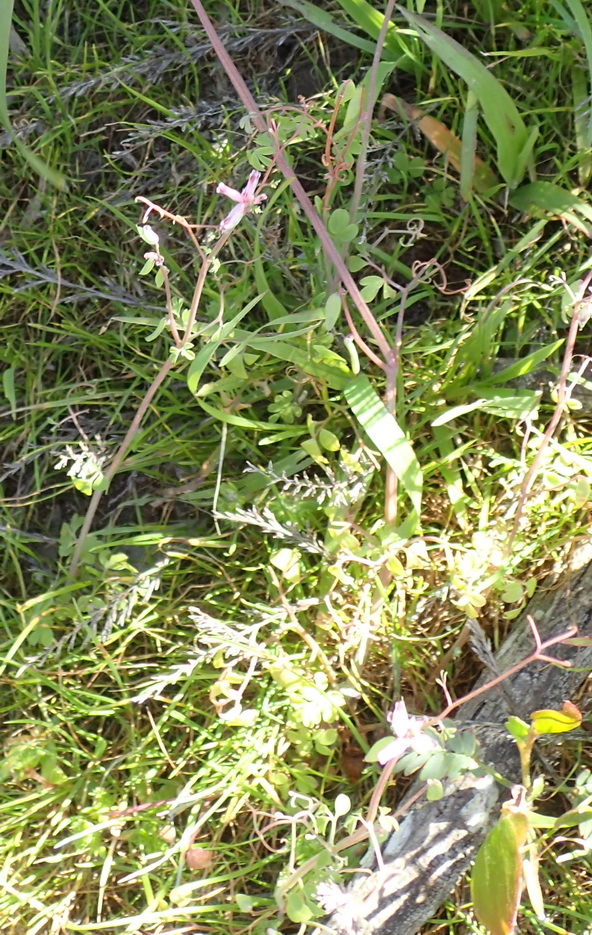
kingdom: Plantae
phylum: Tracheophyta
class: Magnoliopsida
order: Ranunculales
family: Papaveraceae
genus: Cysticapnos
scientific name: Cysticapnos cracca
